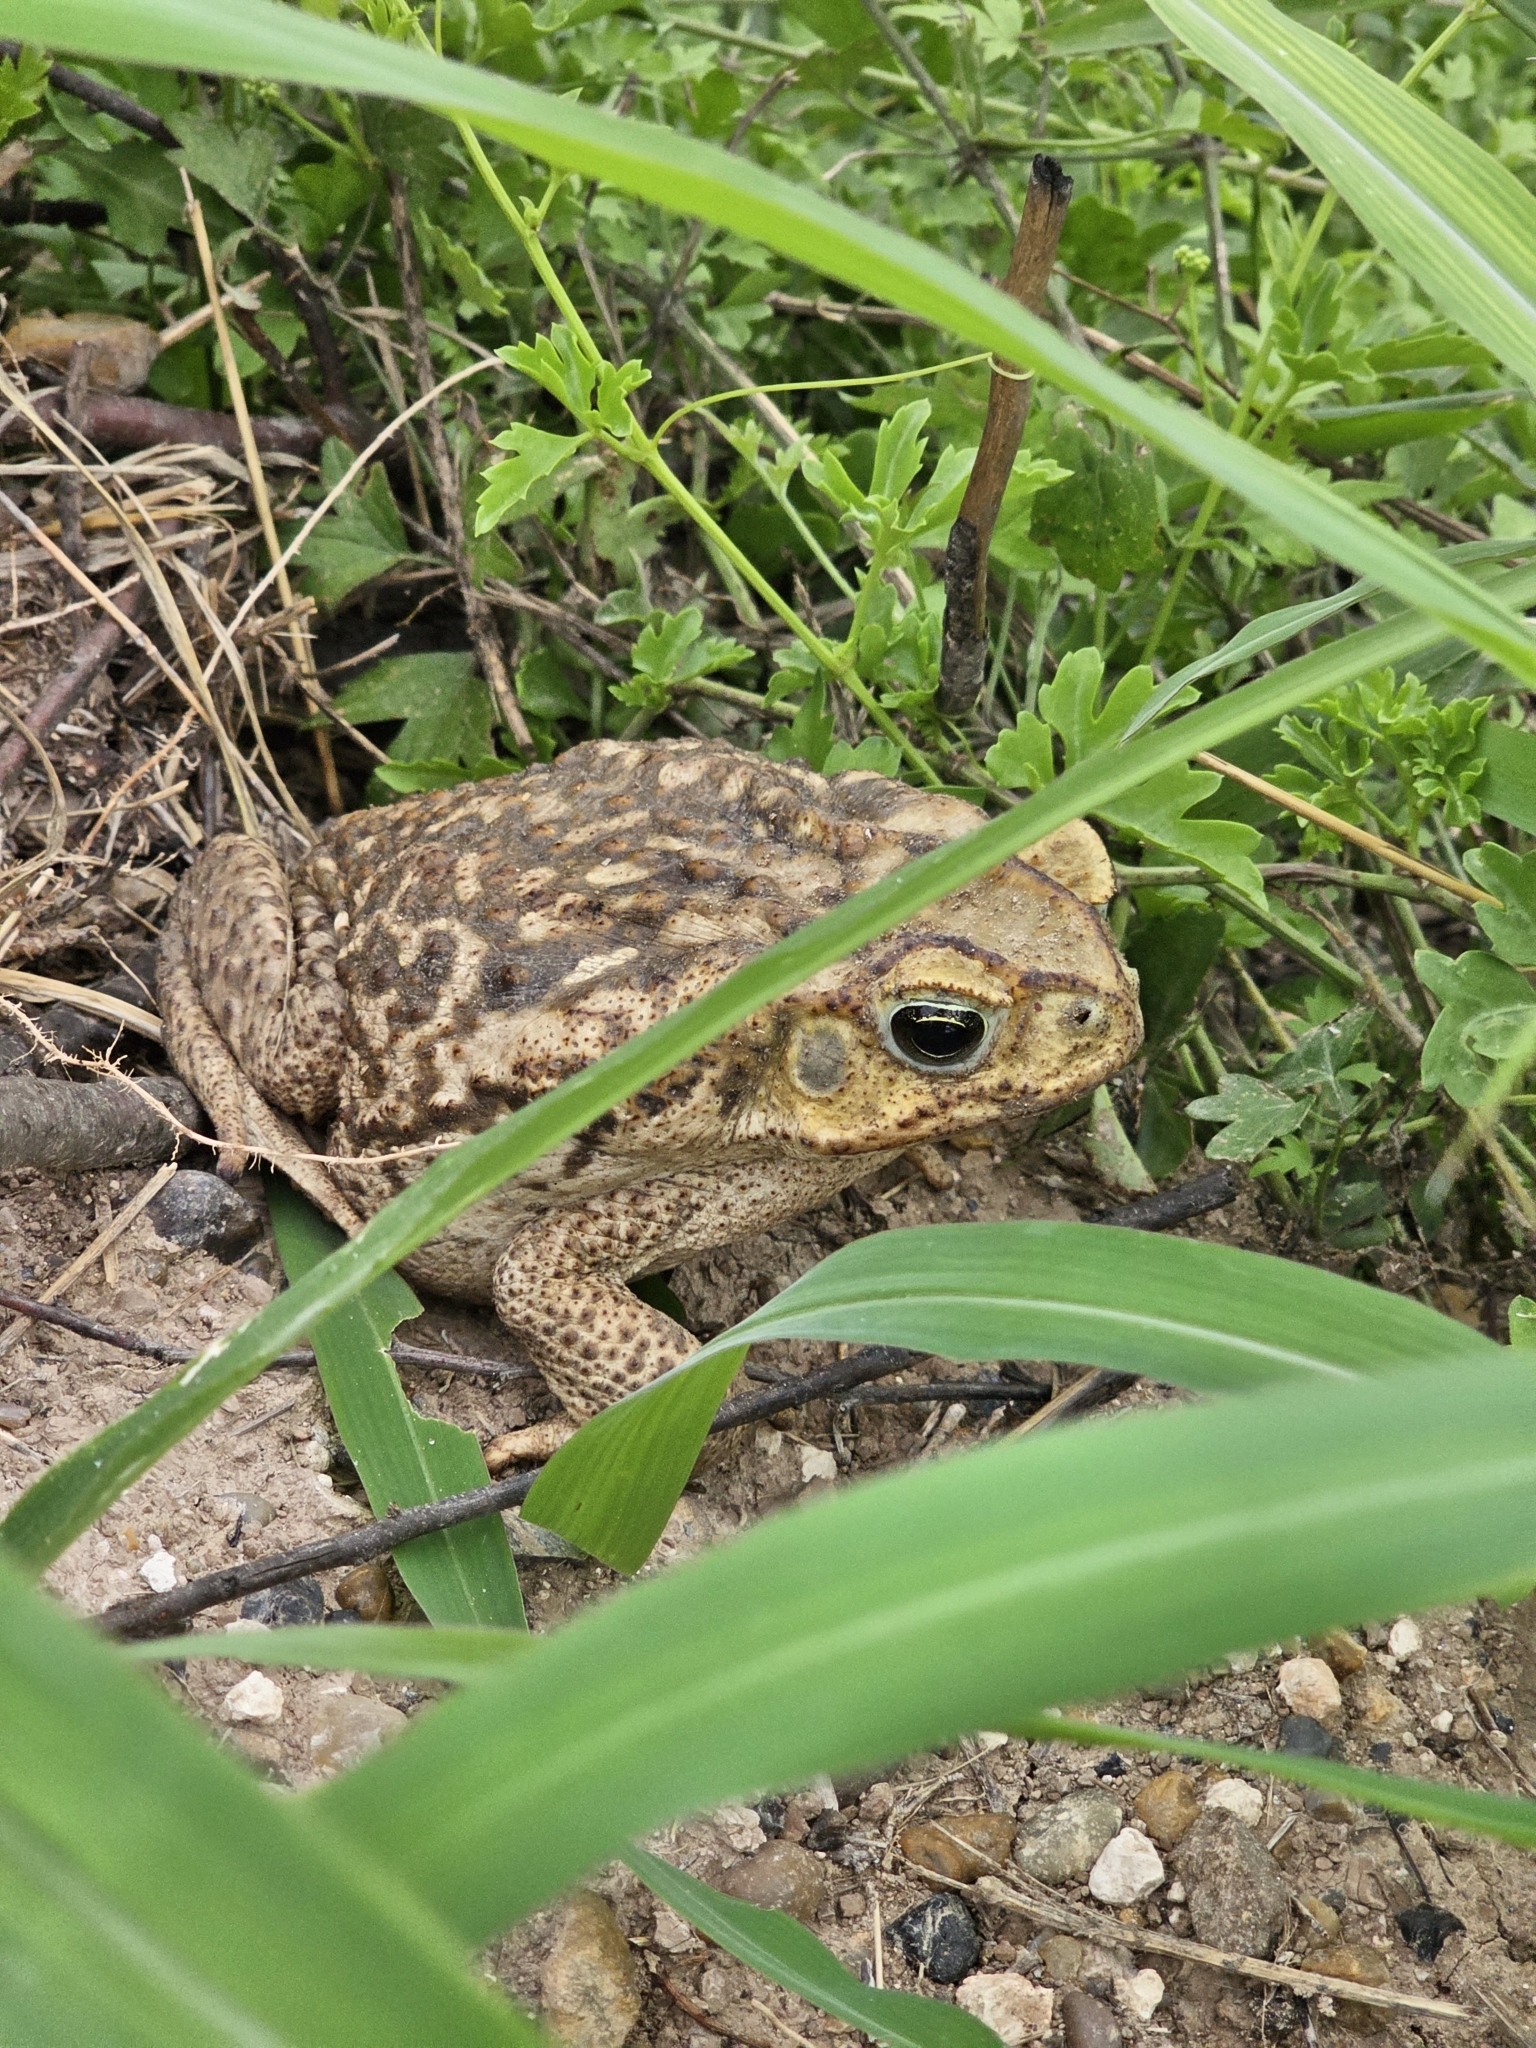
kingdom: Animalia
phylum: Chordata
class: Amphibia
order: Anura
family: Bufonidae
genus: Rhinella
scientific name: Rhinella horribilis
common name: Mesoamerican cane toad
